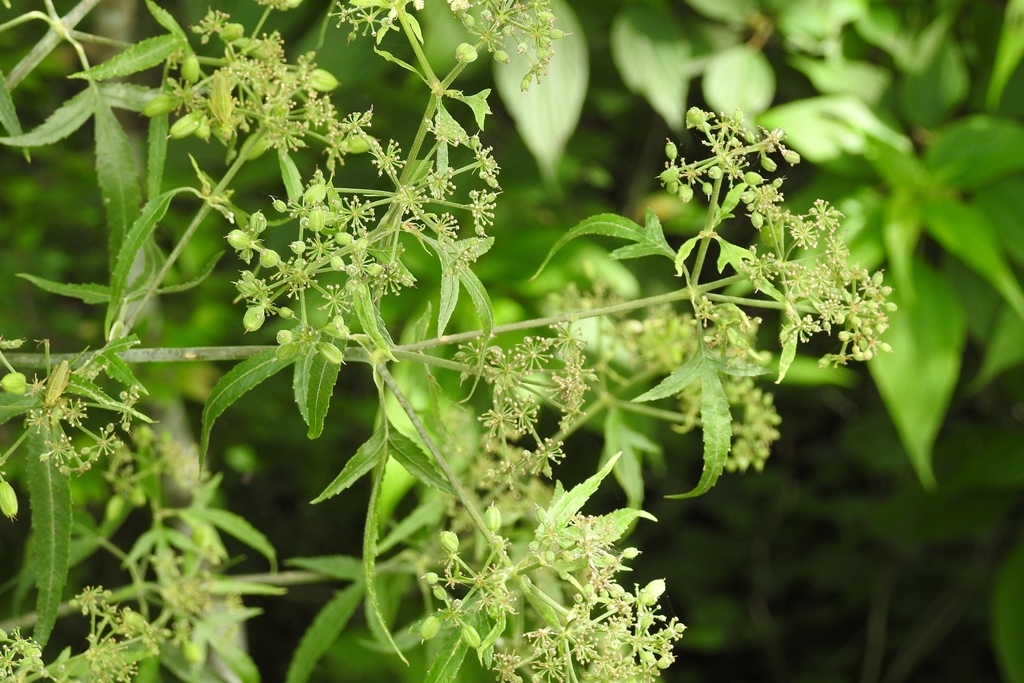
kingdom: Plantae
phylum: Tracheophyta
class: Magnoliopsida
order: Apiales
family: Apiaceae
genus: Prionosciadium
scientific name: Prionosciadium nelsonii
